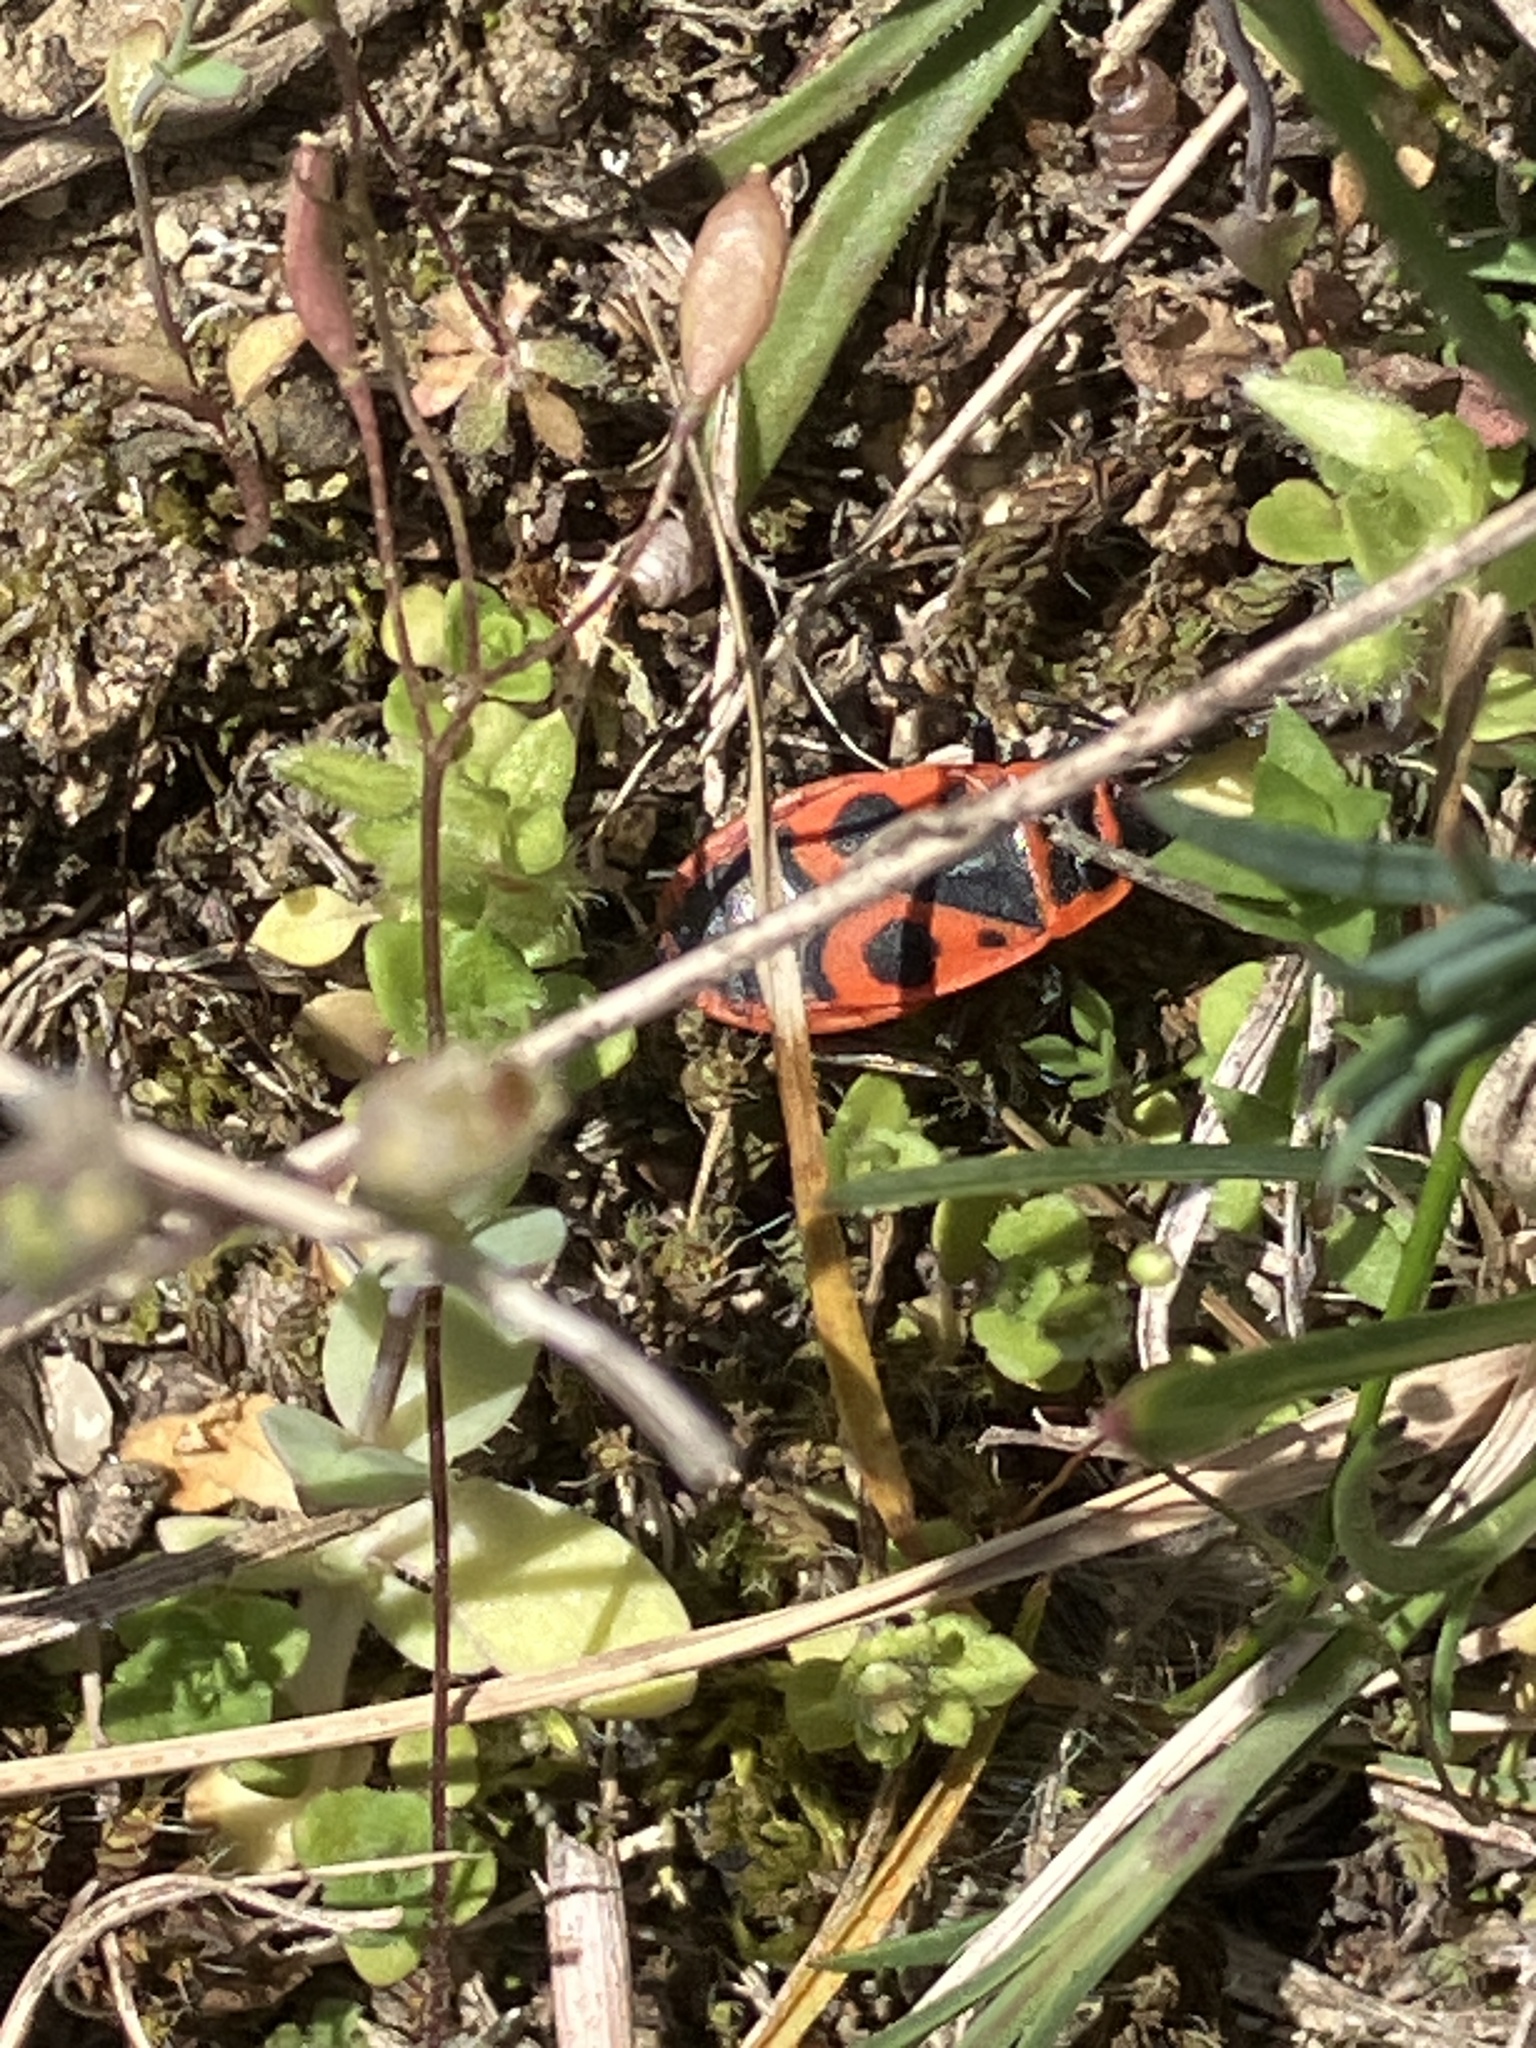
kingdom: Animalia
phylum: Arthropoda
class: Insecta
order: Hemiptera
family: Pyrrhocoridae
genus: Pyrrhocoris
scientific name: Pyrrhocoris apterus
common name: Firebug
